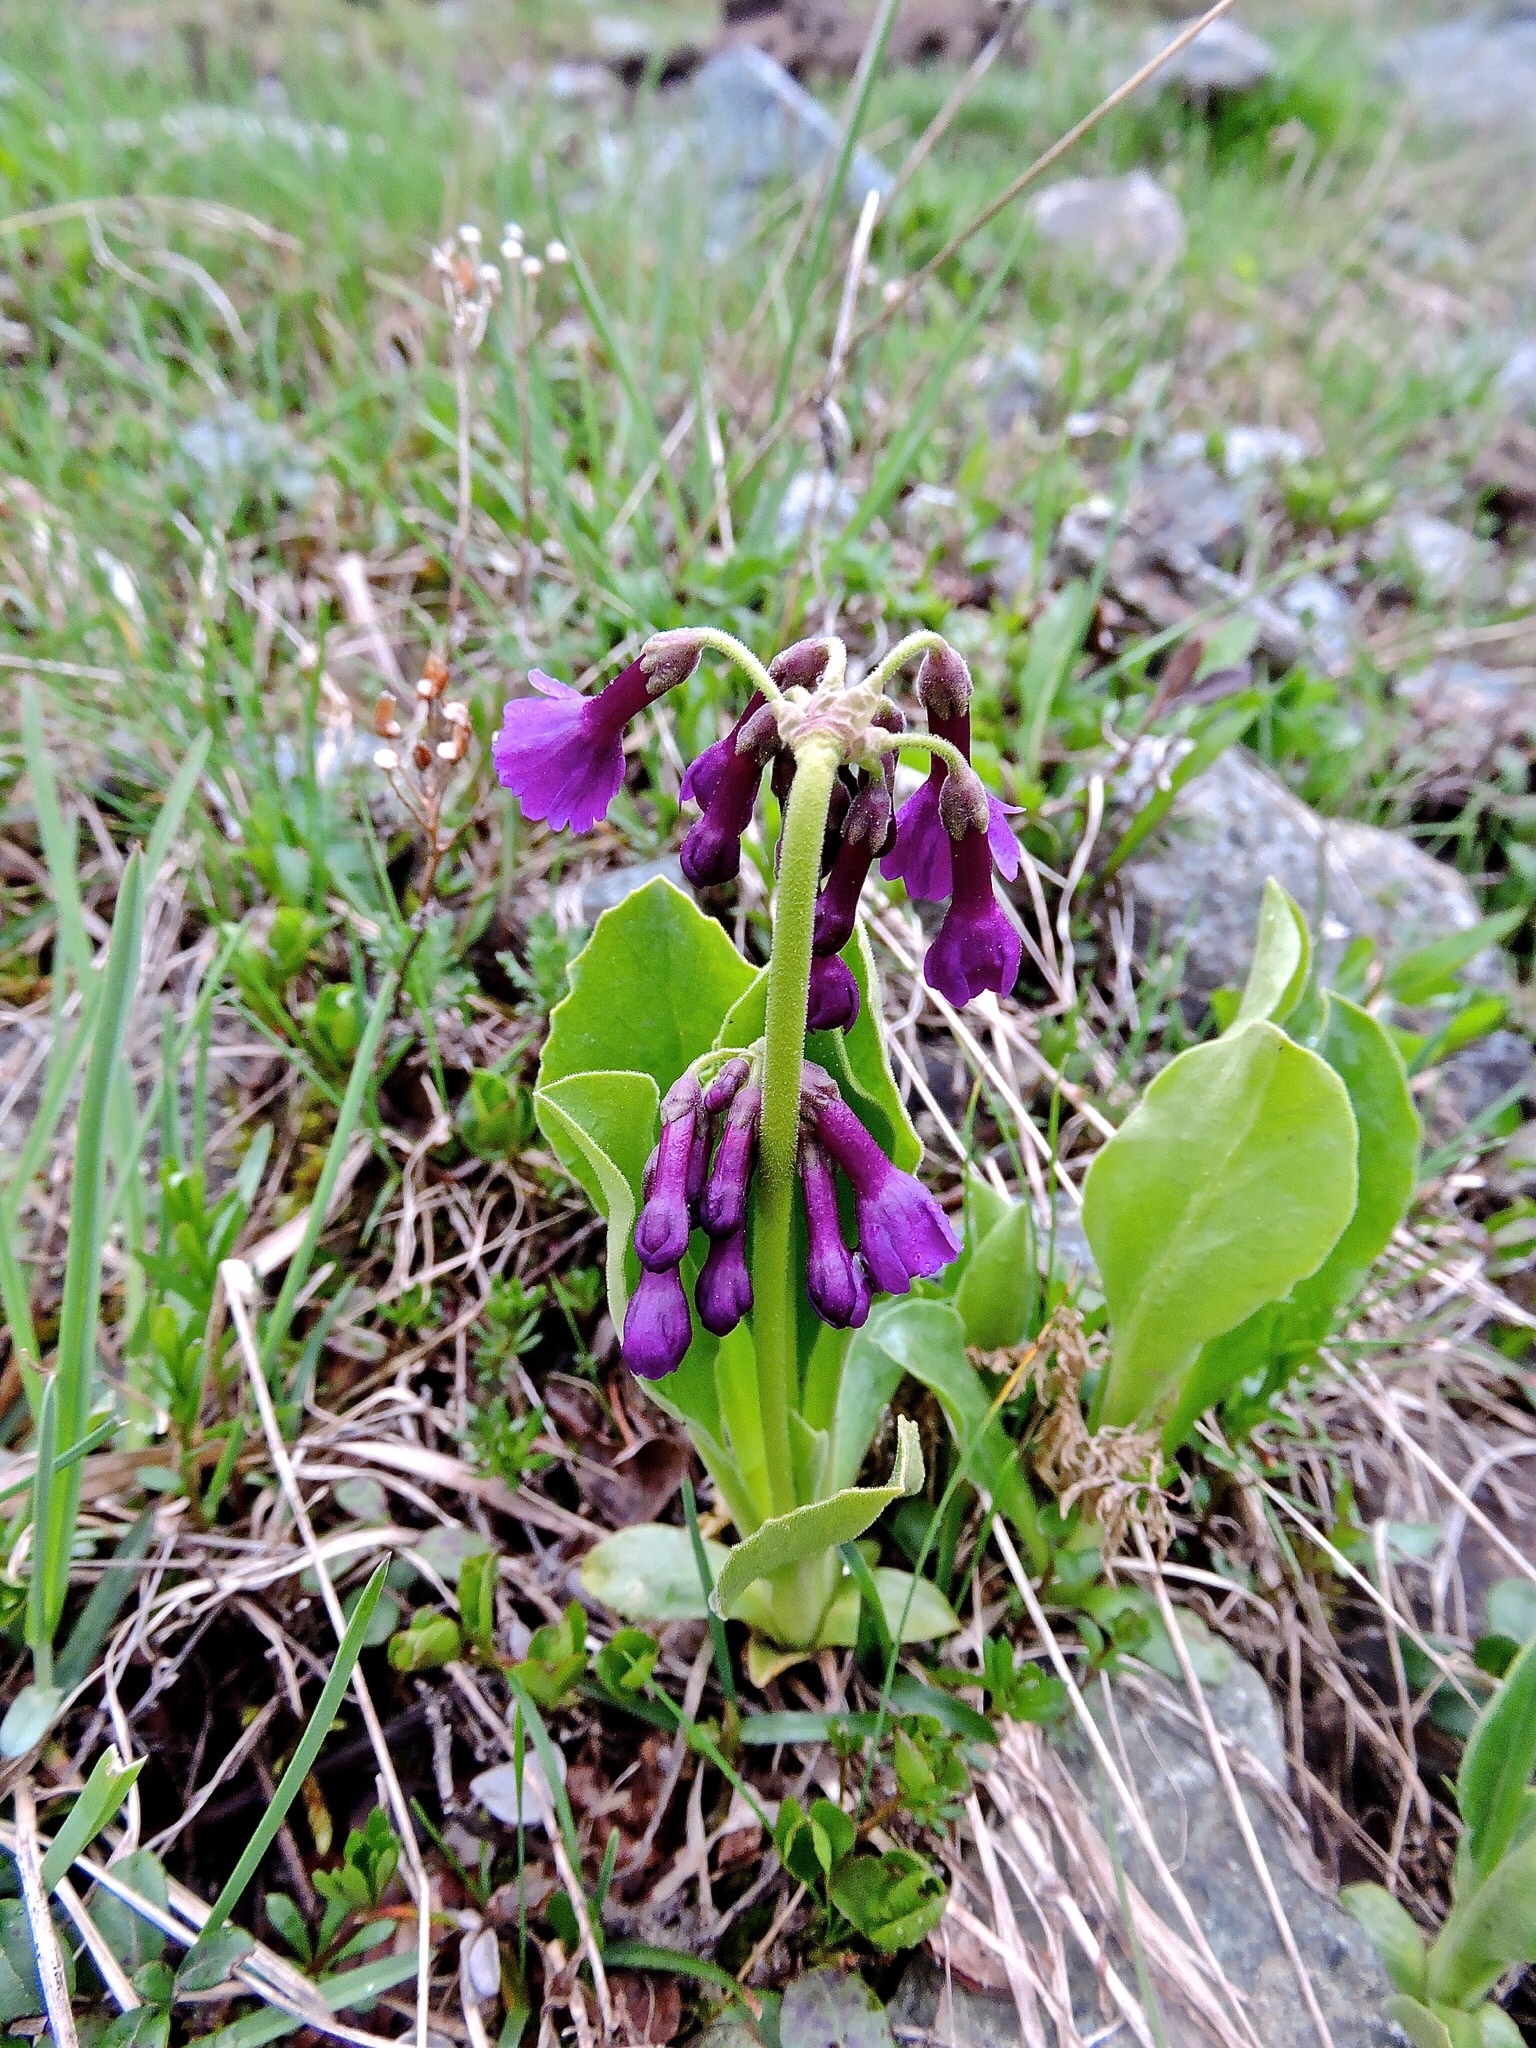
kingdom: Plantae
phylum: Tracheophyta
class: Magnoliopsida
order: Ericales
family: Primulaceae
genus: Primula
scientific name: Primula latifolia
